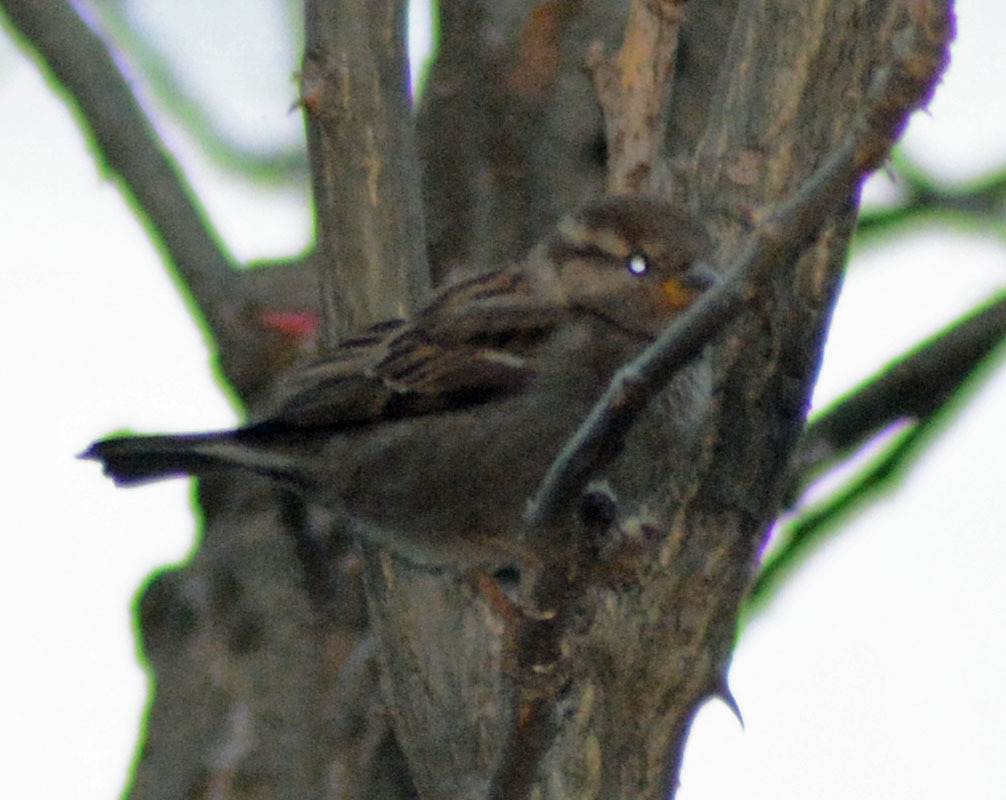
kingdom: Animalia
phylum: Chordata
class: Aves
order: Passeriformes
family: Passeridae
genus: Passer
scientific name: Passer domesticus
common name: House sparrow
